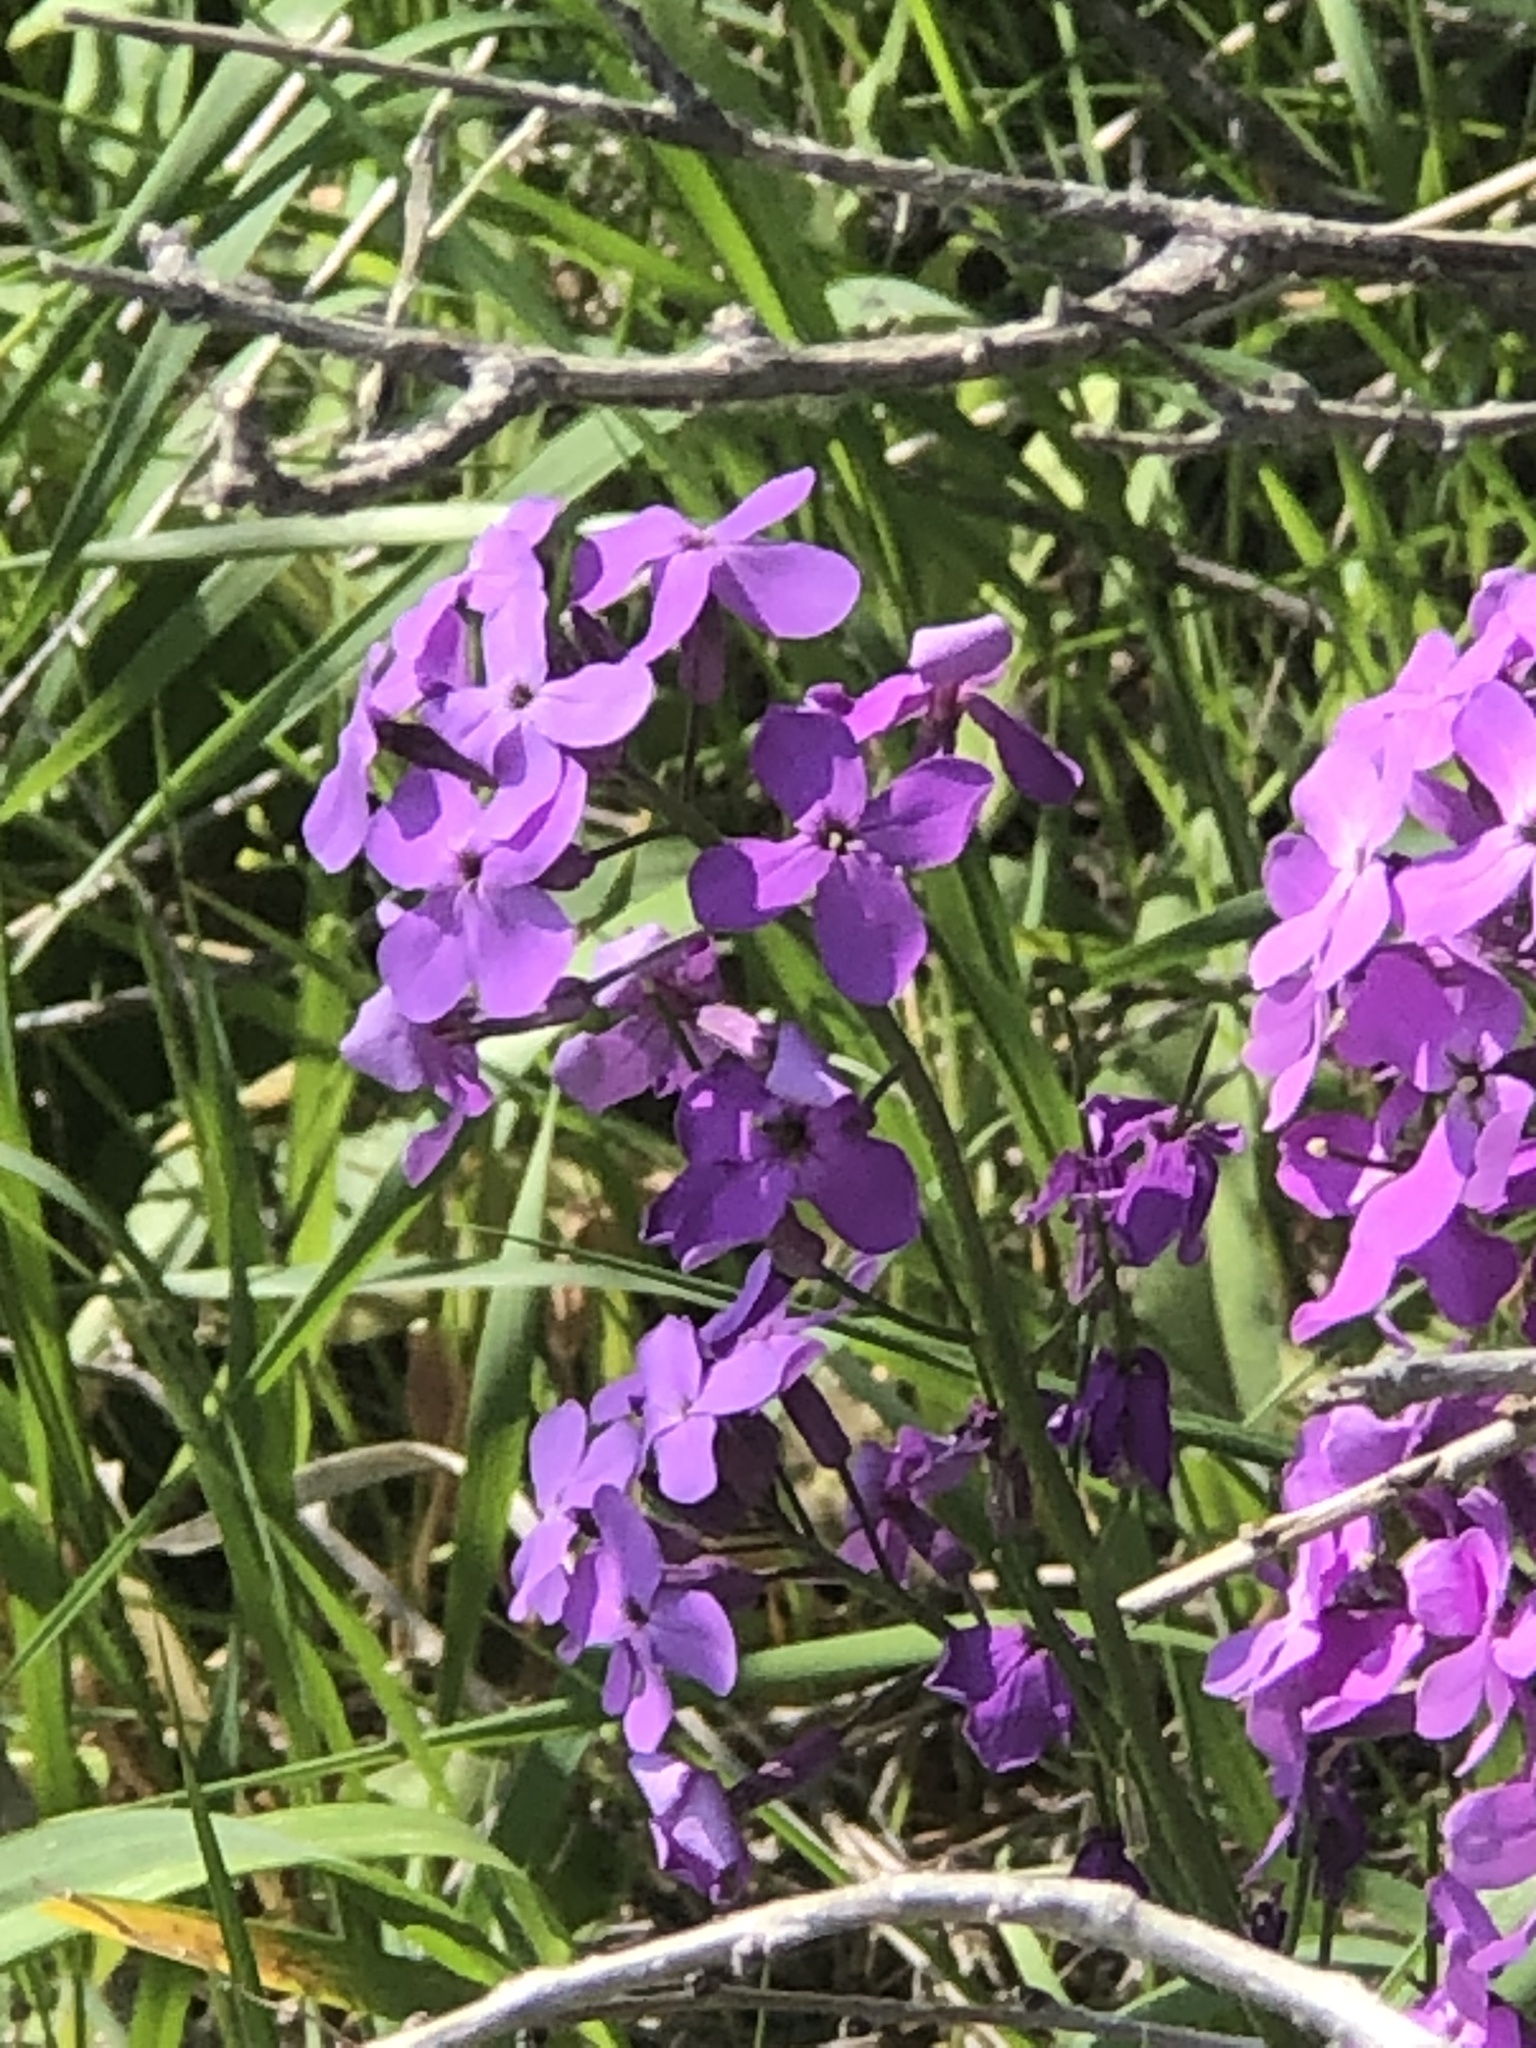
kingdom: Plantae
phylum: Tracheophyta
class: Magnoliopsida
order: Brassicales
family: Brassicaceae
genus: Hesperis
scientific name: Hesperis matronalis
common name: Dame's-violet
